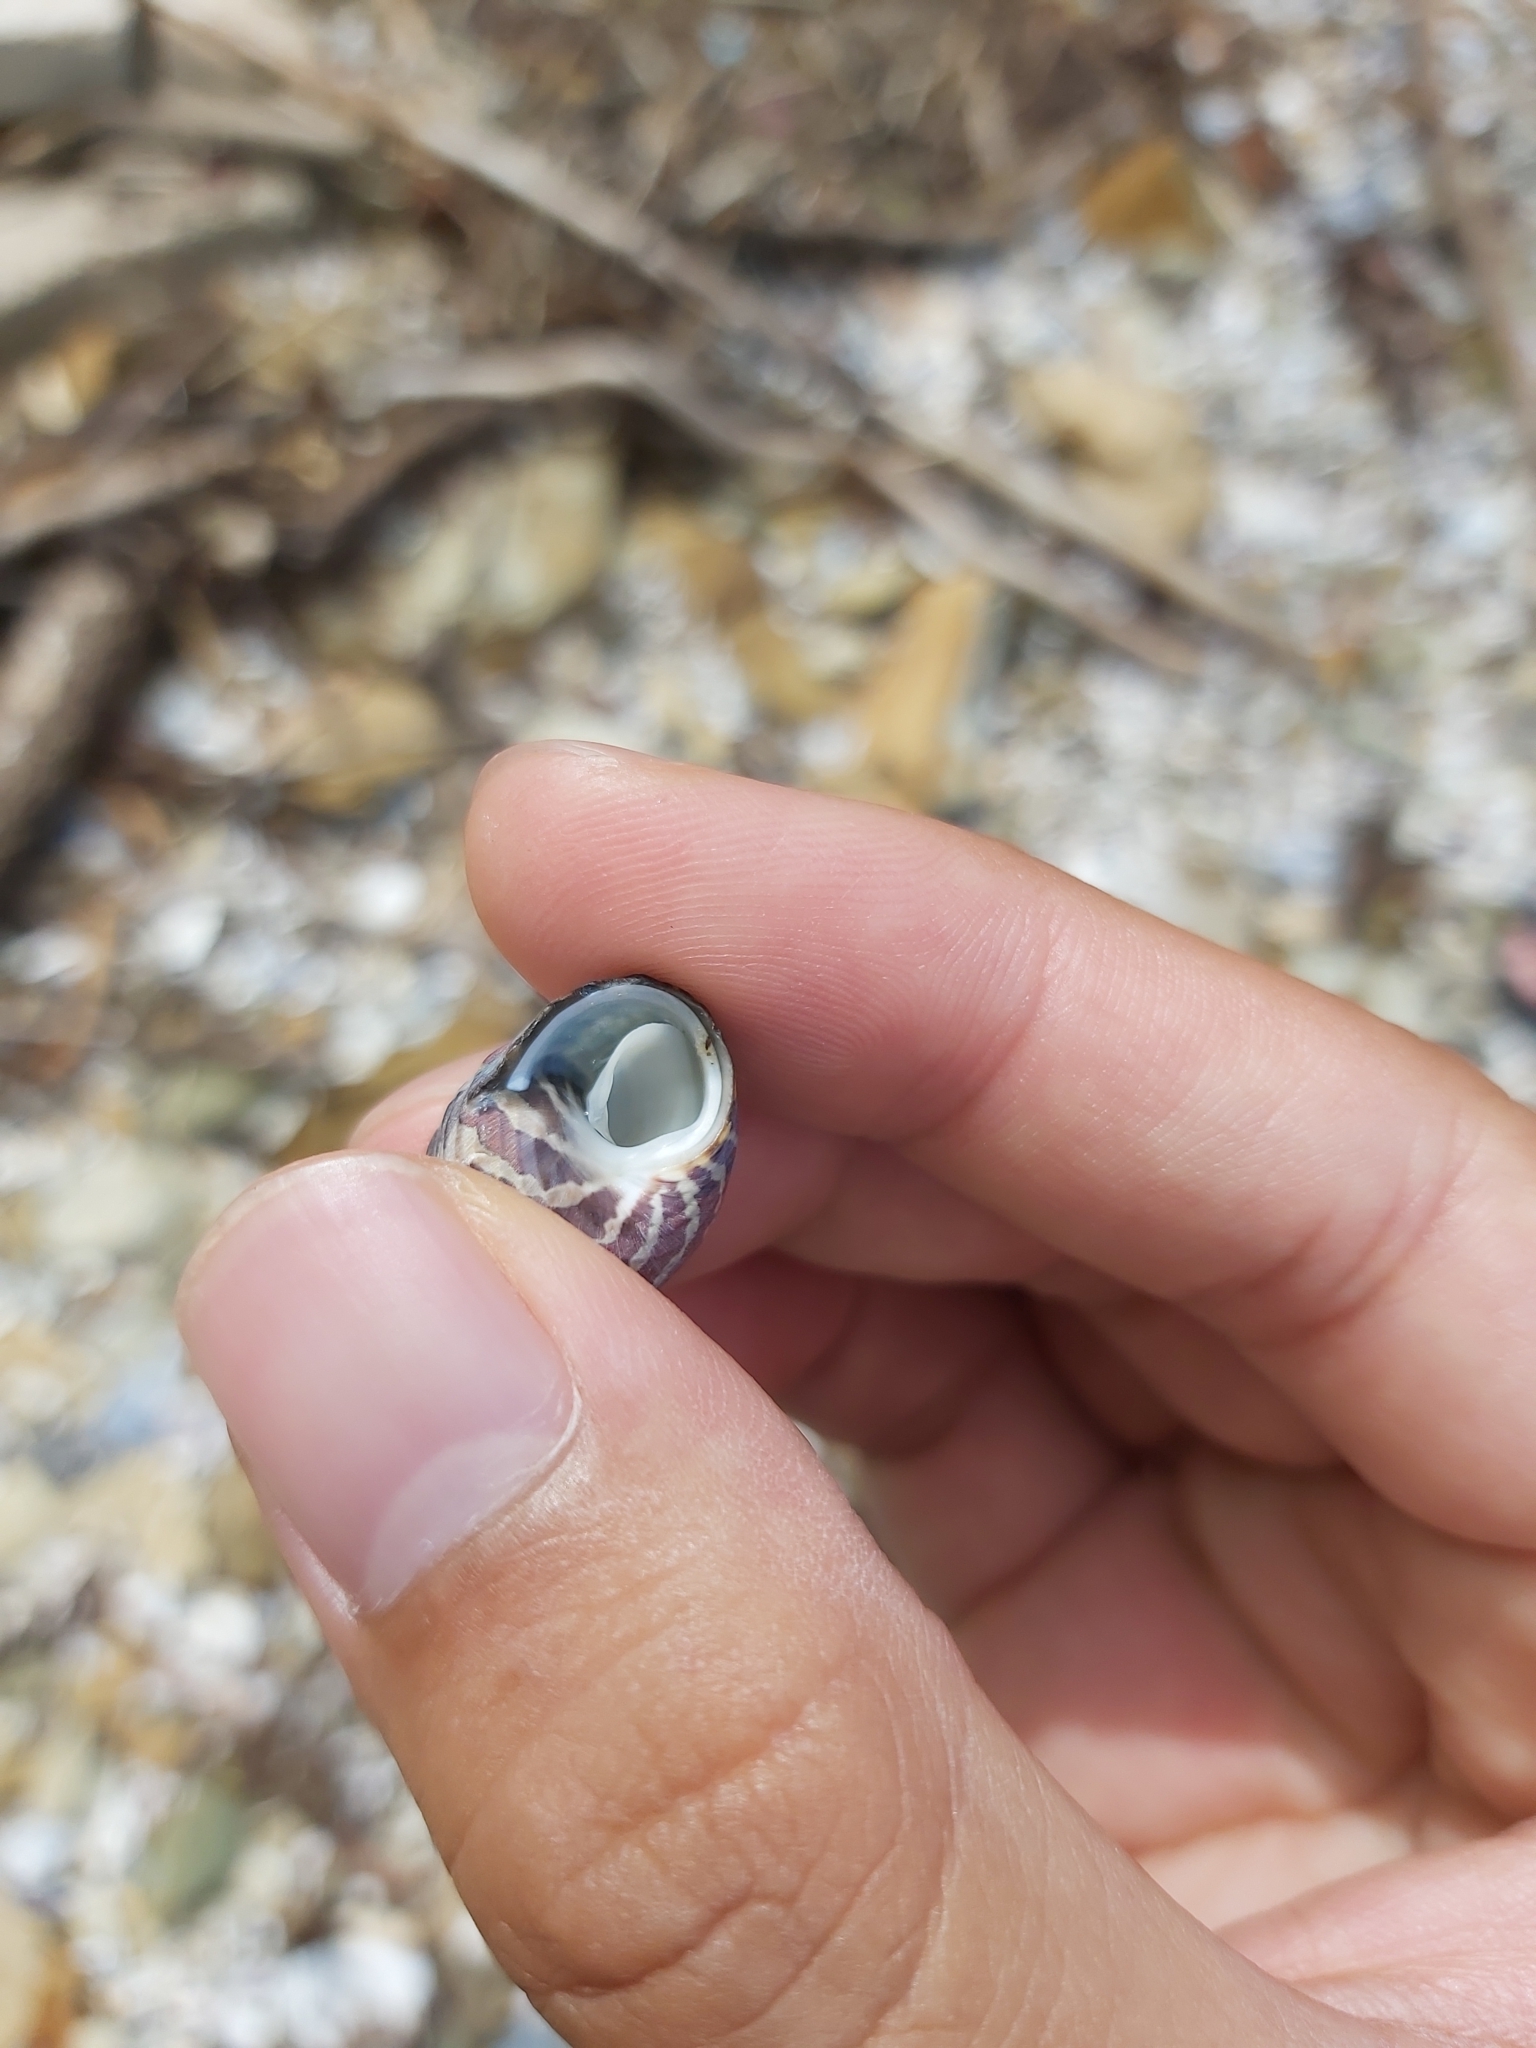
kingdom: Animalia
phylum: Mollusca
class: Gastropoda
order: Trochida
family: Trochidae
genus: Austrocochlea
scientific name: Austrocochlea porcata
